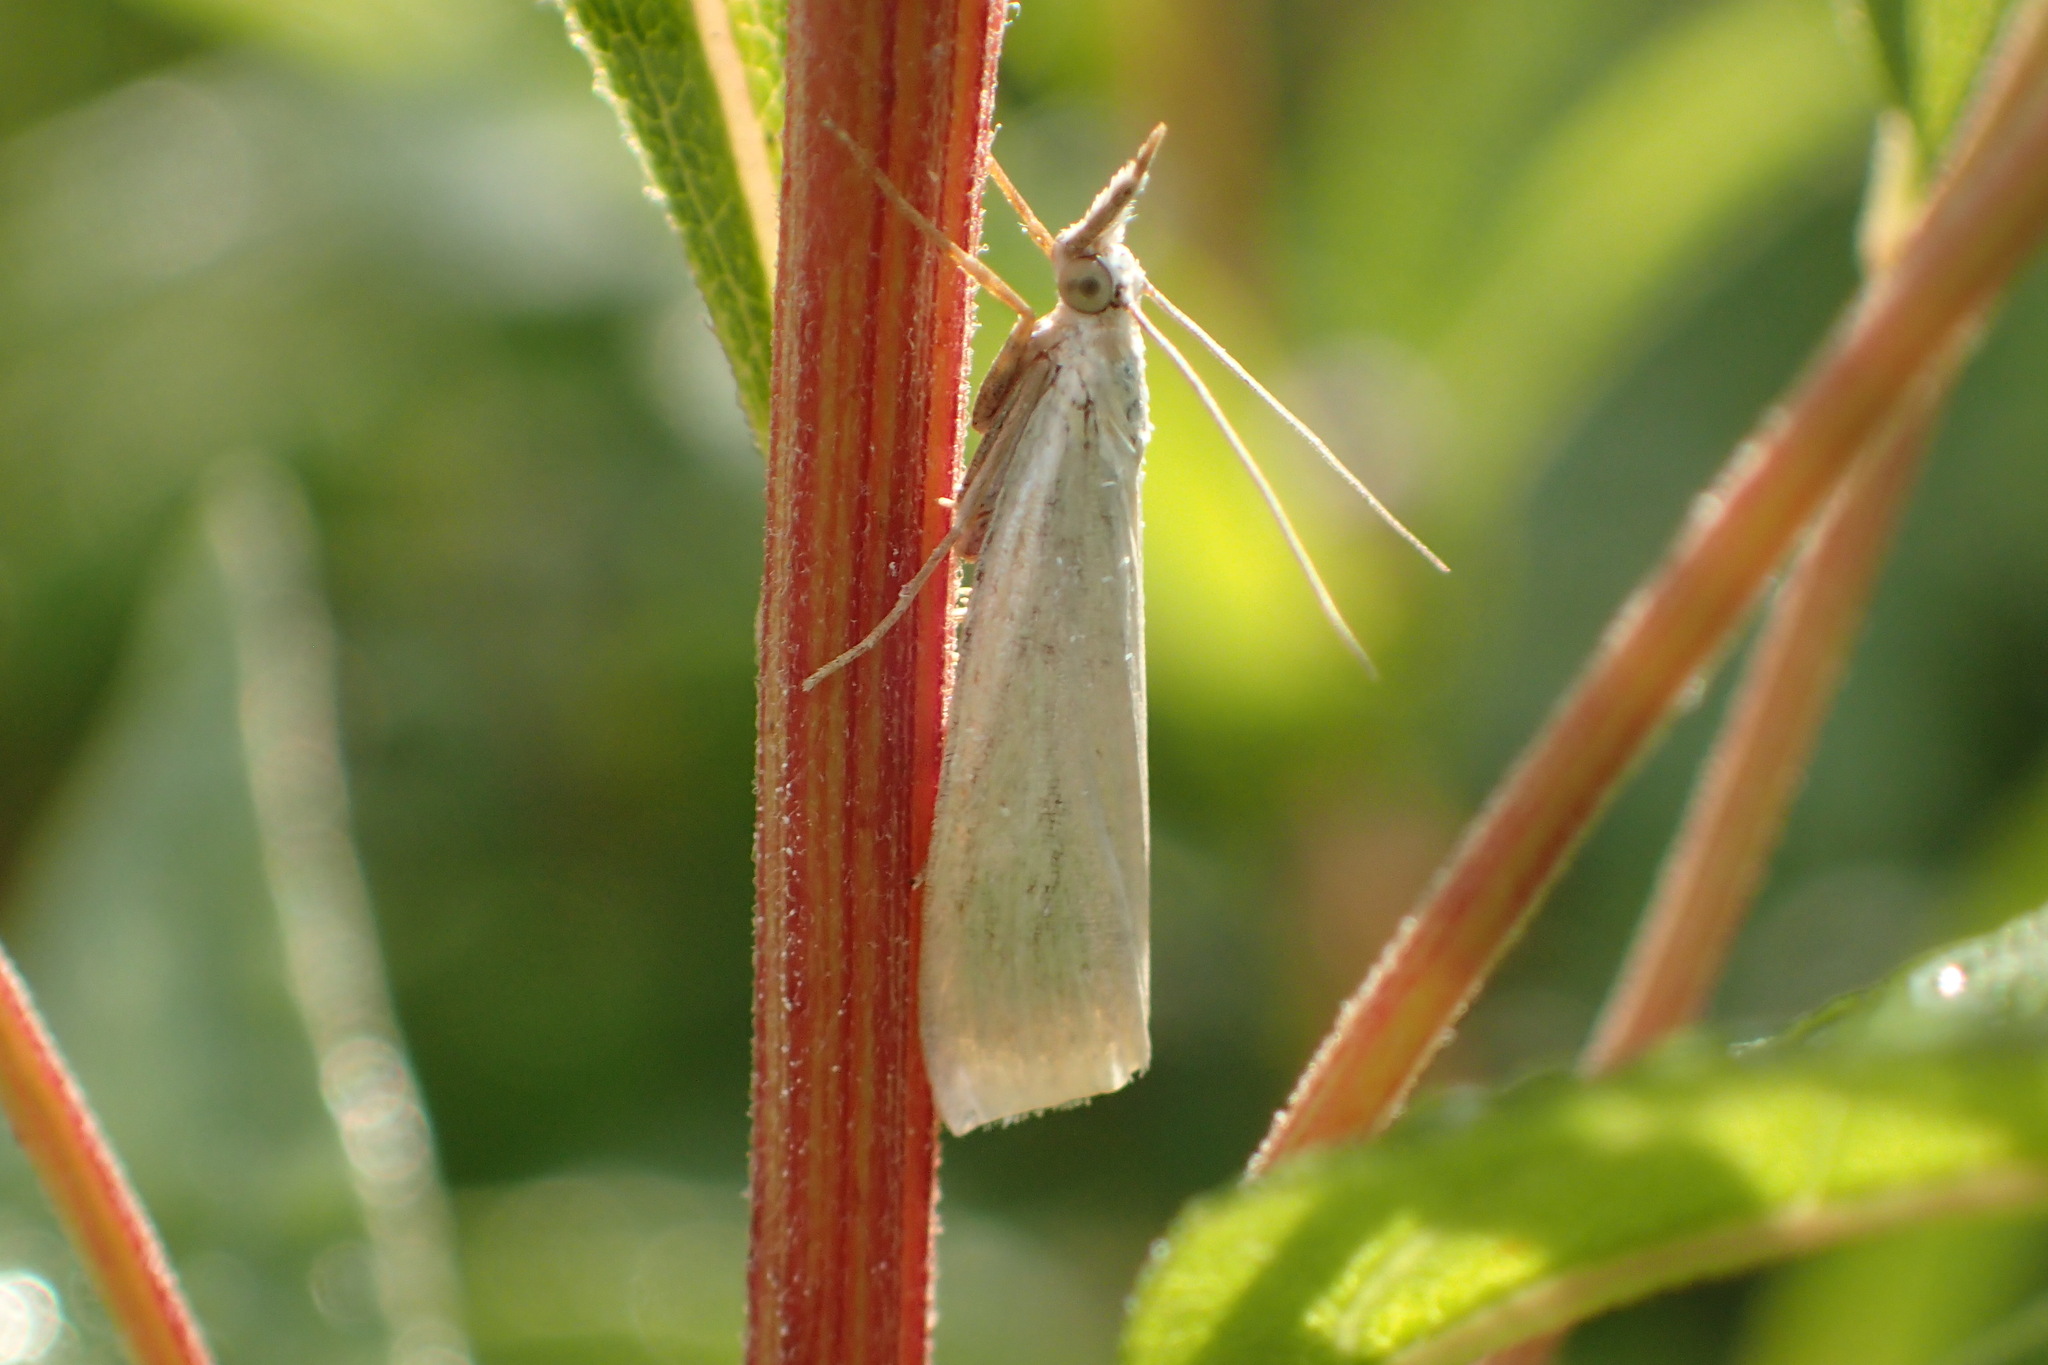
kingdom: Animalia
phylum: Arthropoda
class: Insecta
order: Lepidoptera
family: Crambidae
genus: Crambus
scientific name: Crambus perlellus
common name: Yellow satin veneer
